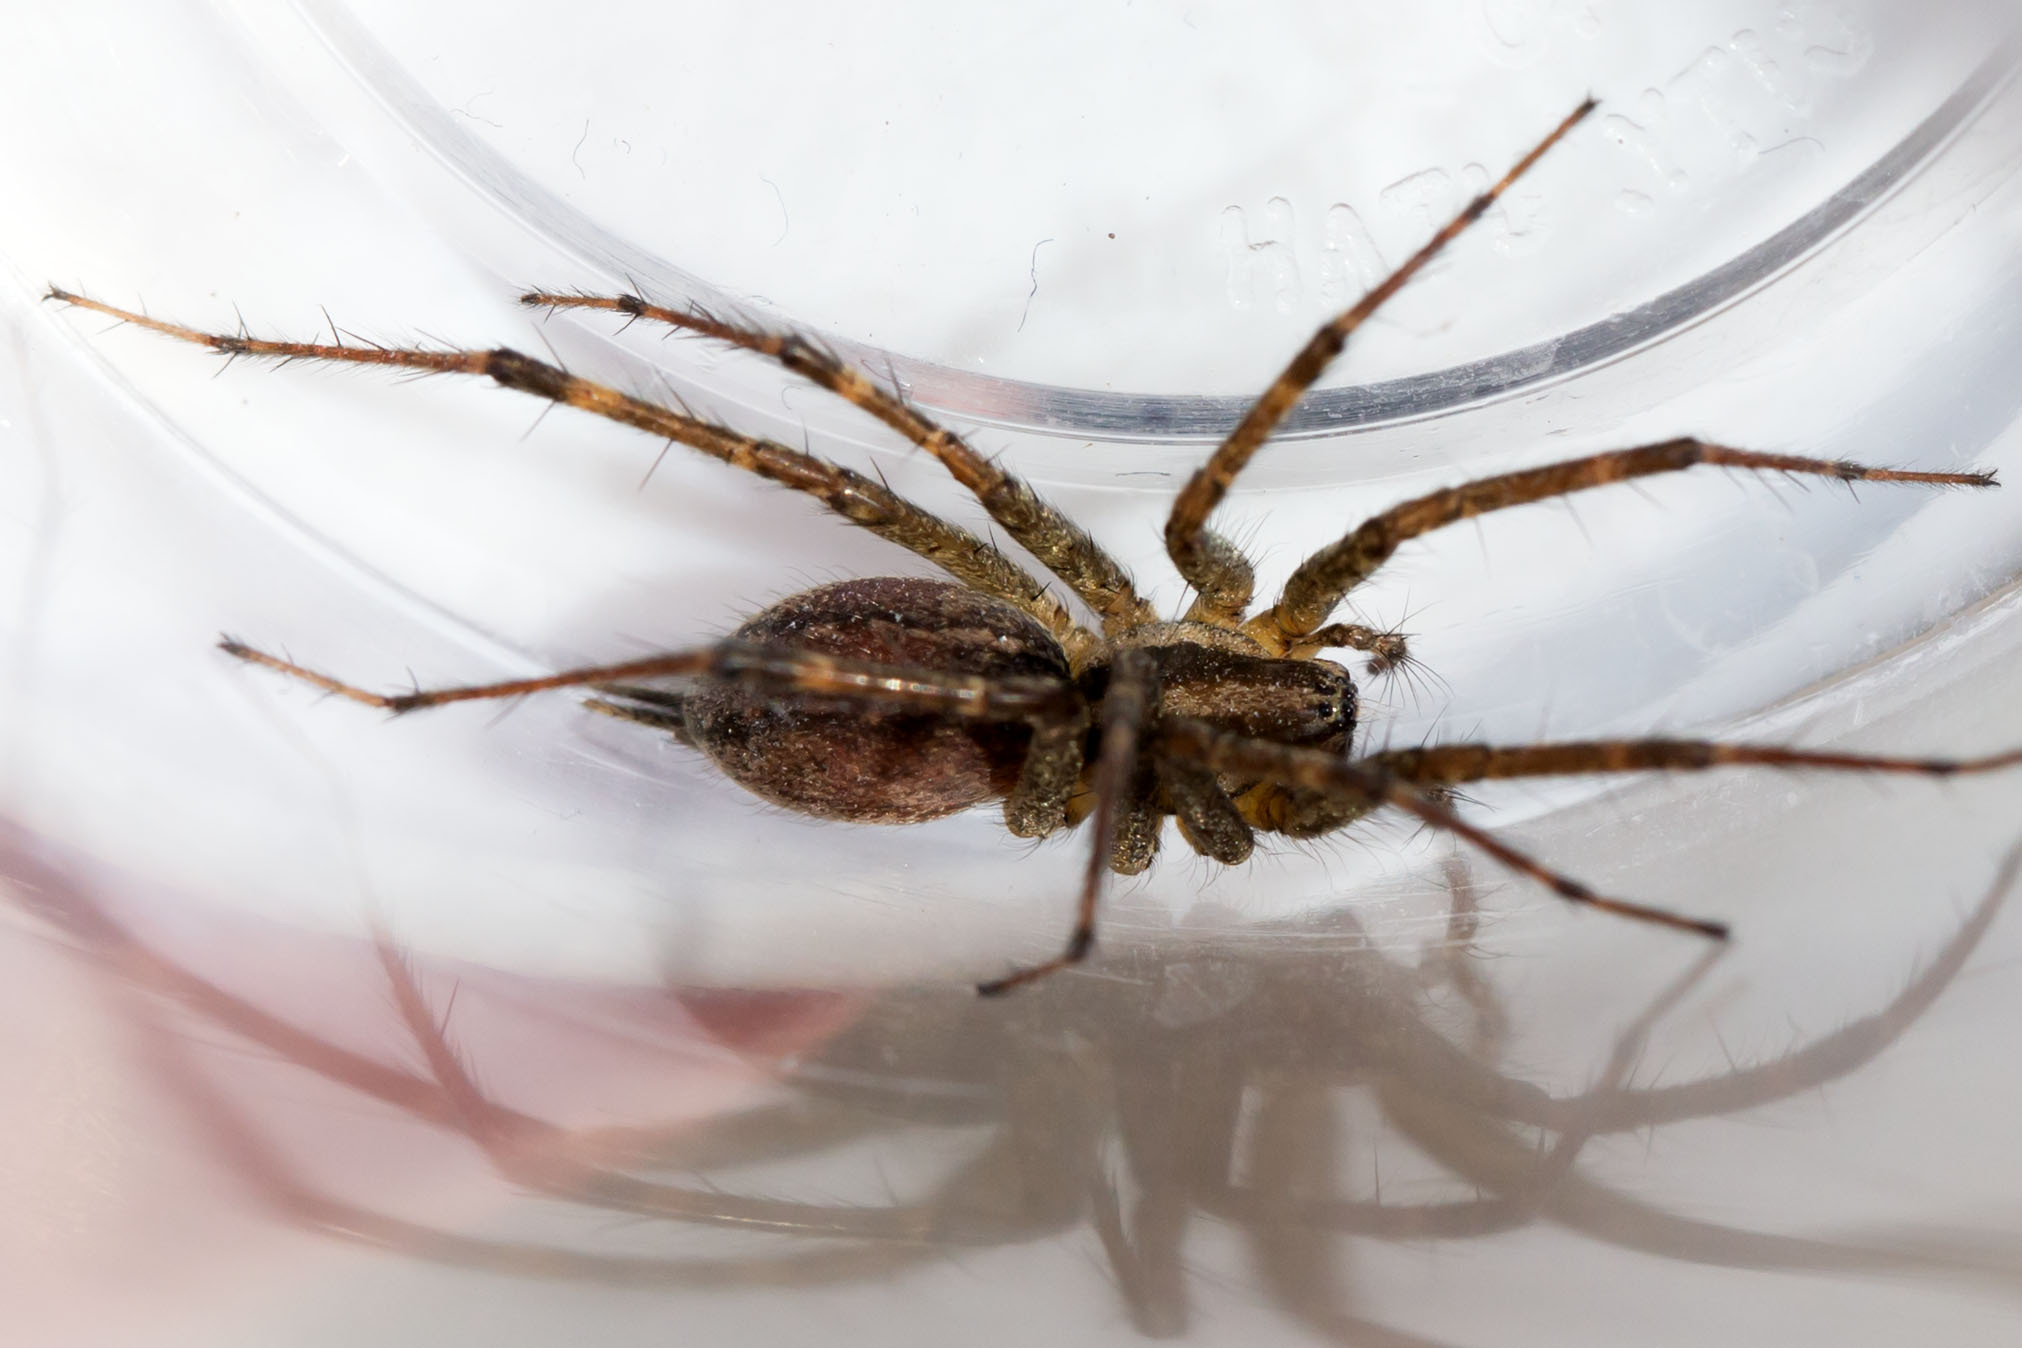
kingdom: Animalia
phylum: Arthropoda
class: Arachnida
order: Araneae
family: Agelenidae
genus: Agelenopsis
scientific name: Agelenopsis
